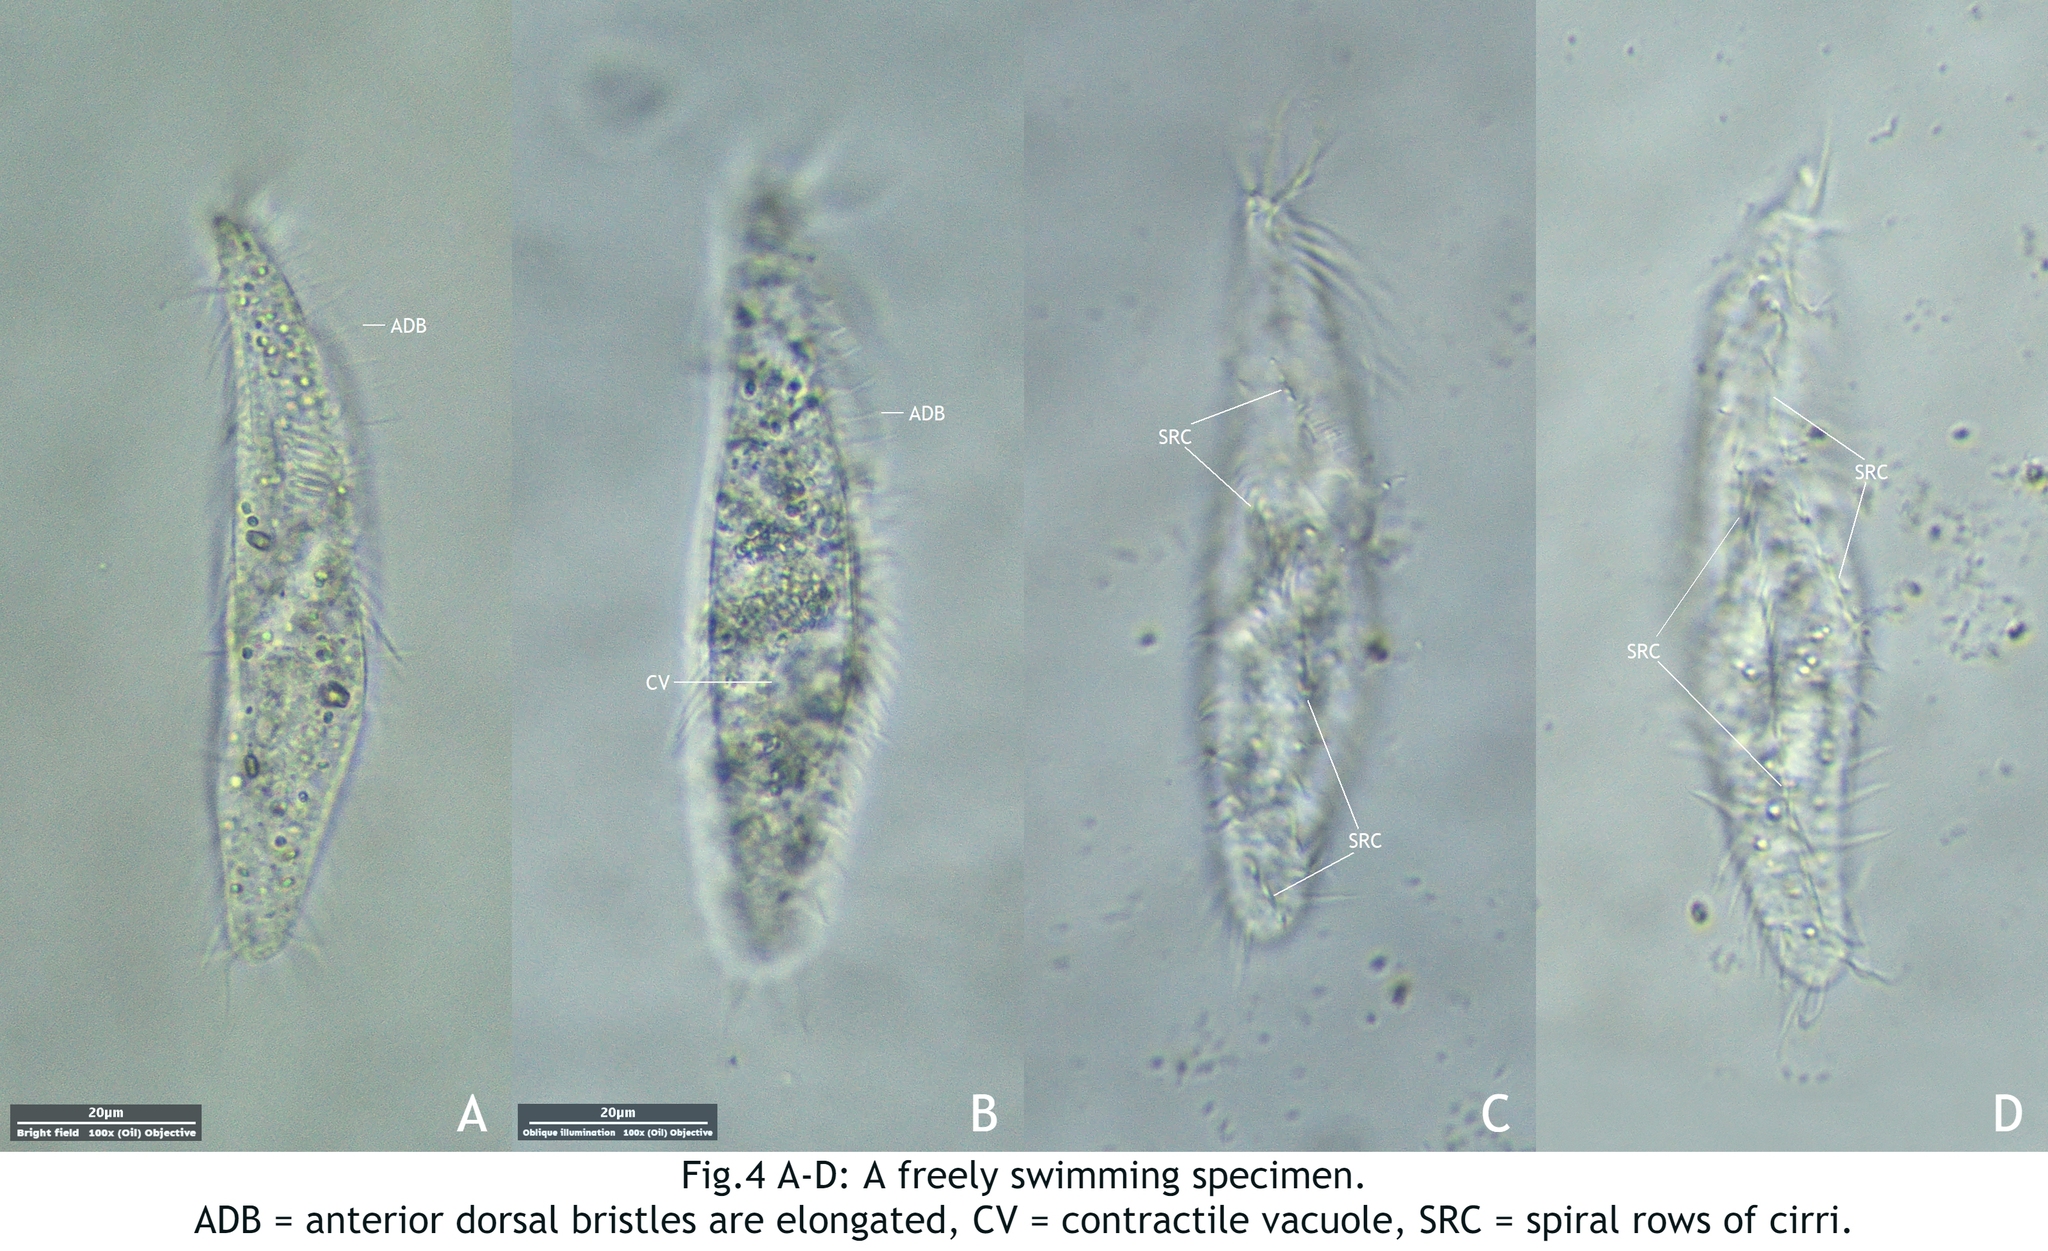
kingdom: Chromista
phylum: Ciliophora
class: Hypotrichea
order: Stichotrichida
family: Spirofilidae
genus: Stichotricha
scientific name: Stichotricha aculeata
